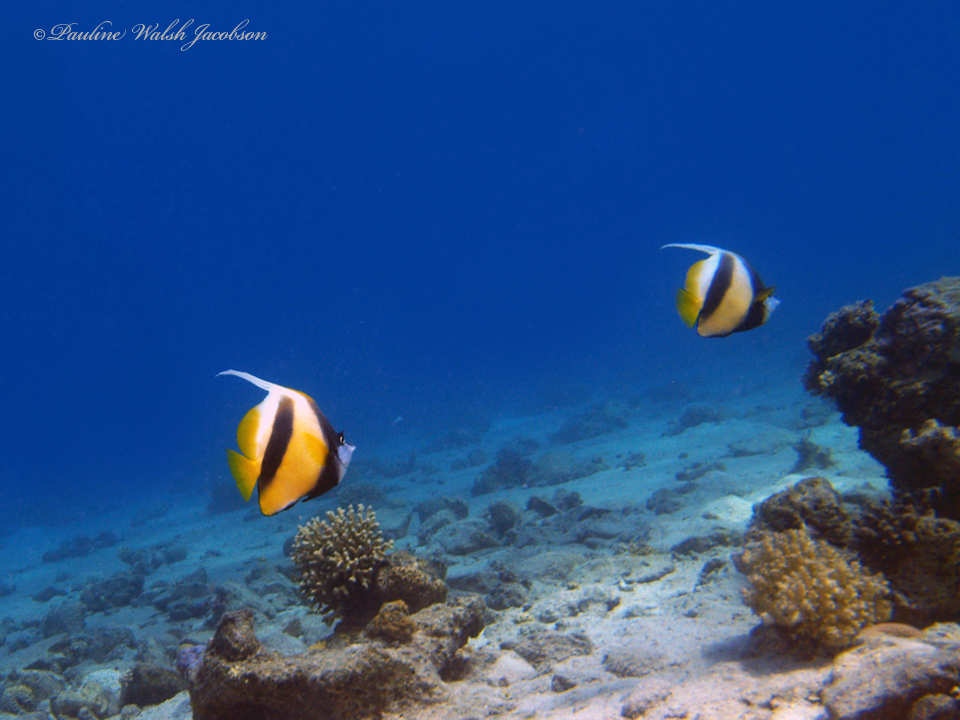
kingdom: Animalia
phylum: Chordata
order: Perciformes
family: Chaetodontidae
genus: Heniochus
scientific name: Heniochus intermedius
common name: Red sea bannerfish
